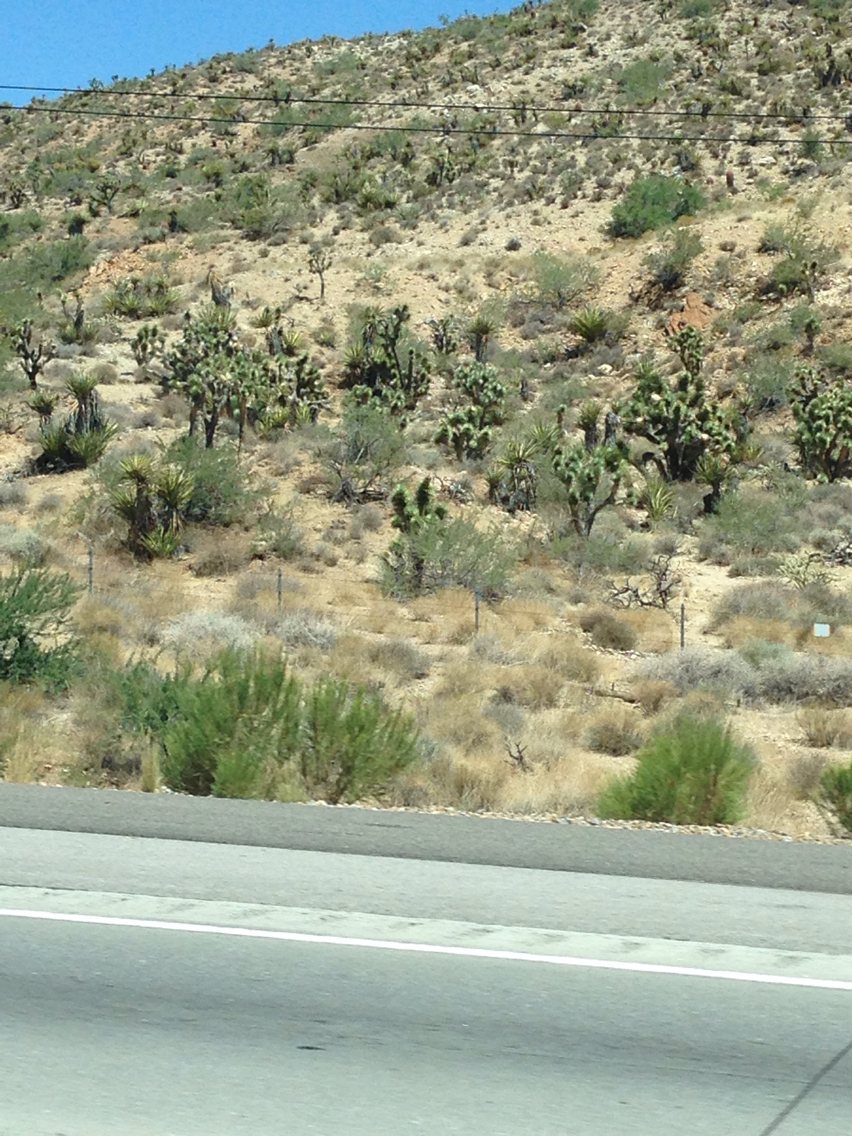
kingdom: Plantae
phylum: Tracheophyta
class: Liliopsida
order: Asparagales
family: Asparagaceae
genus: Yucca
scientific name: Yucca brevifolia
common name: Joshua tree
